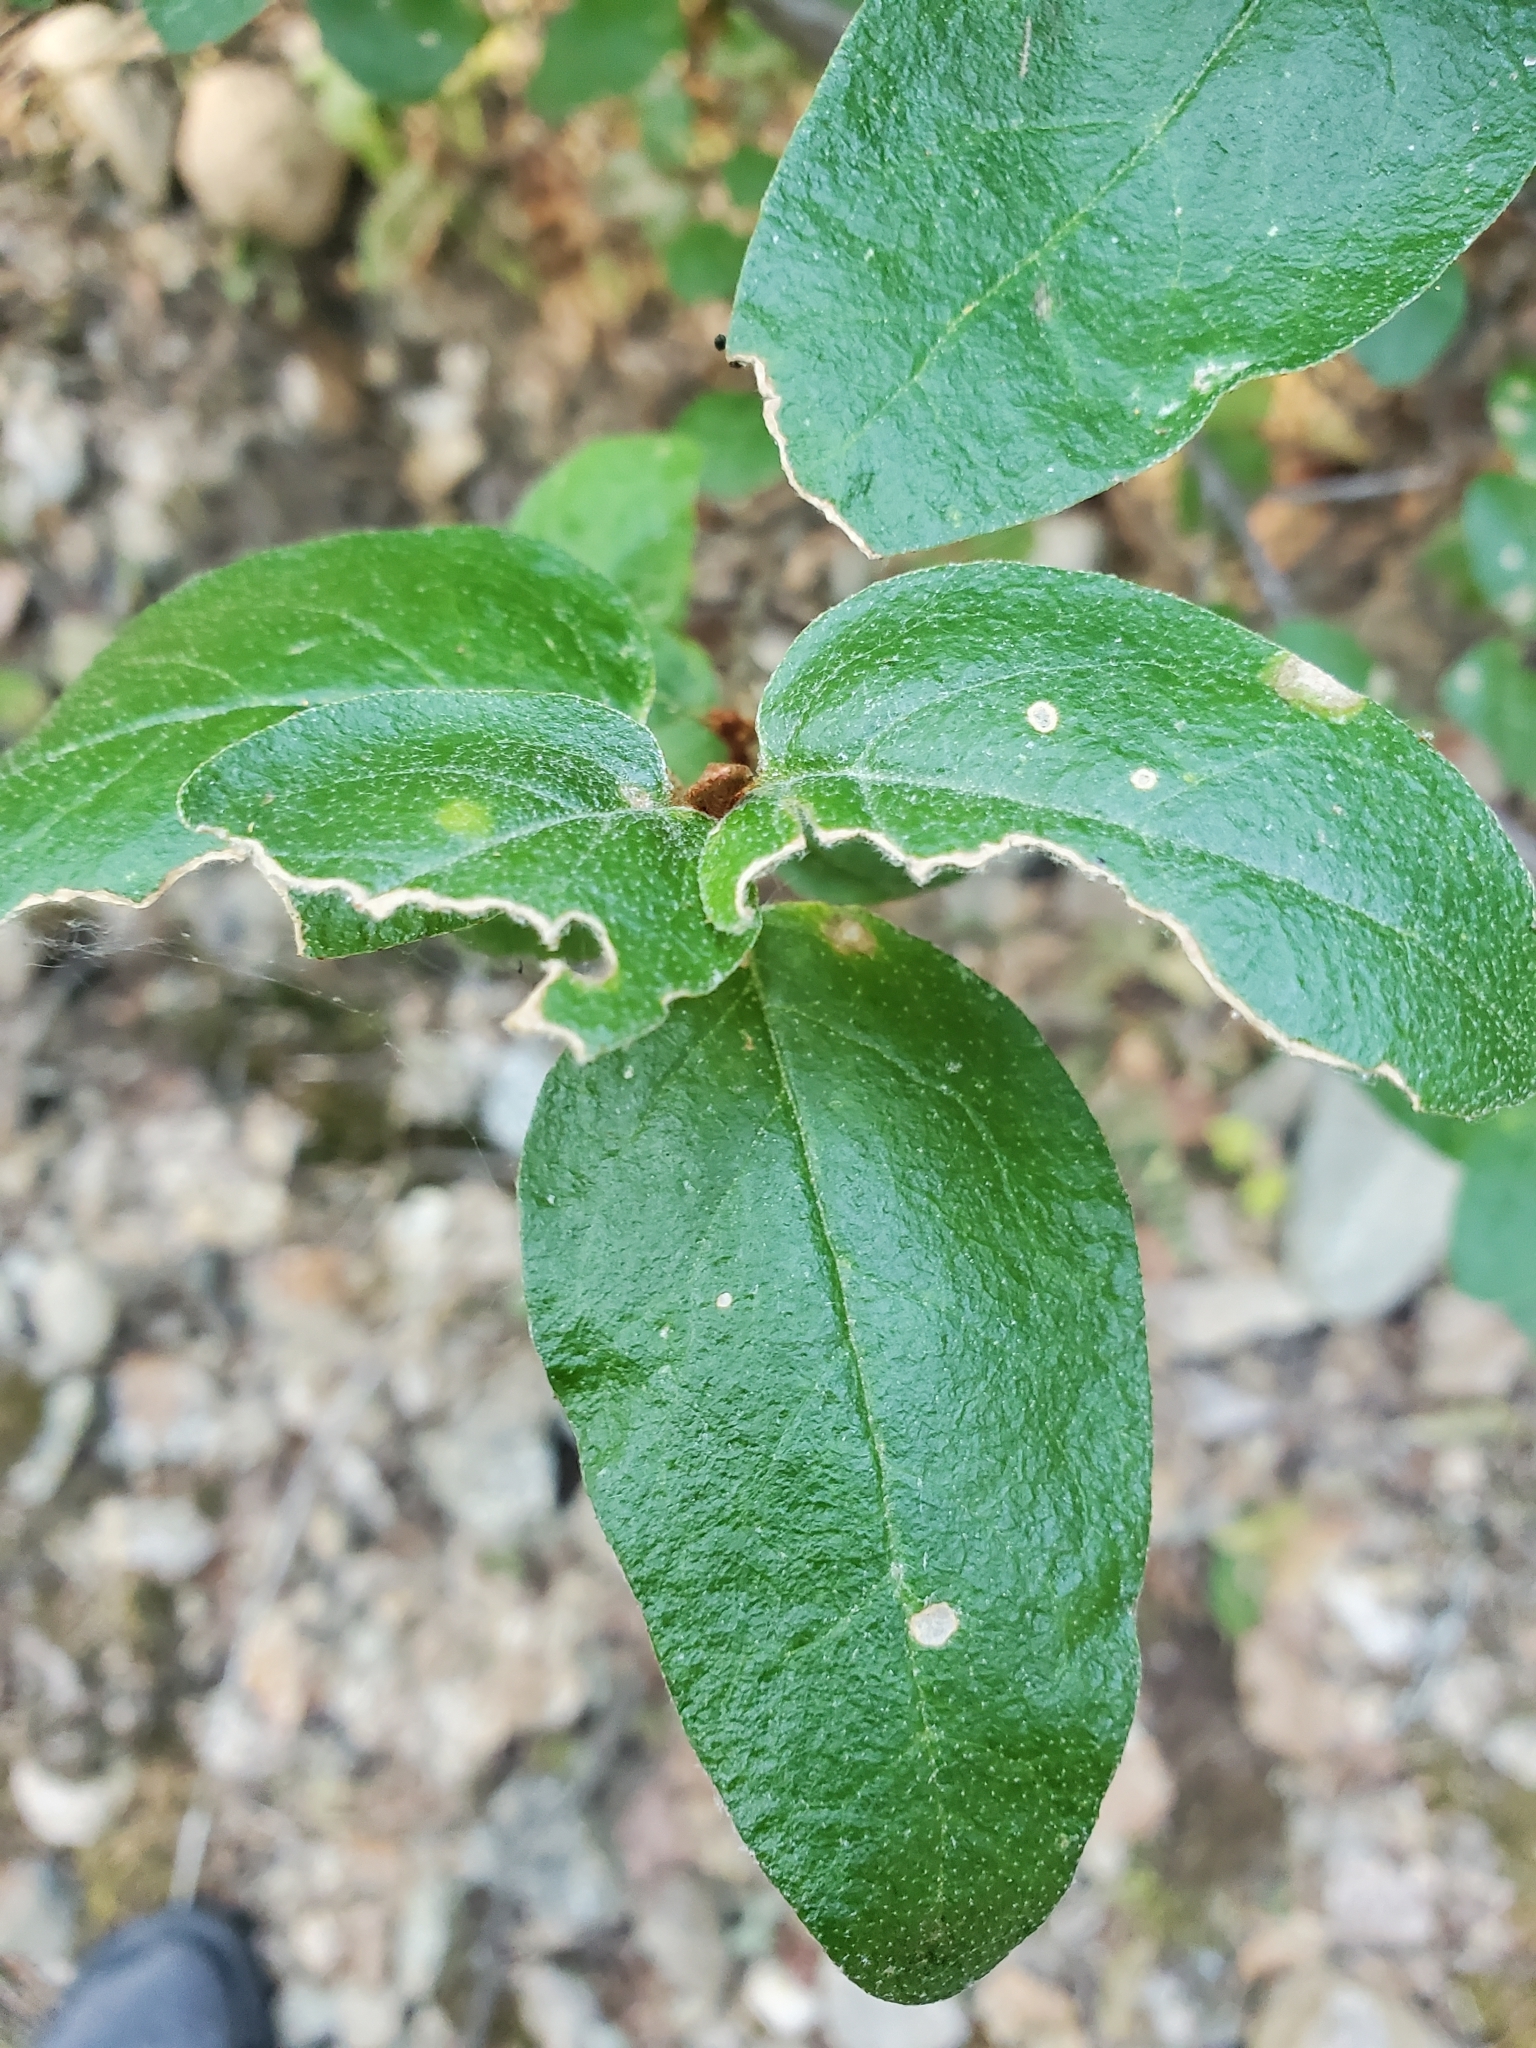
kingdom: Plantae
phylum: Tracheophyta
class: Magnoliopsida
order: Rosales
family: Elaeagnaceae
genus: Shepherdia
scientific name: Shepherdia canadensis
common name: Soapberry
